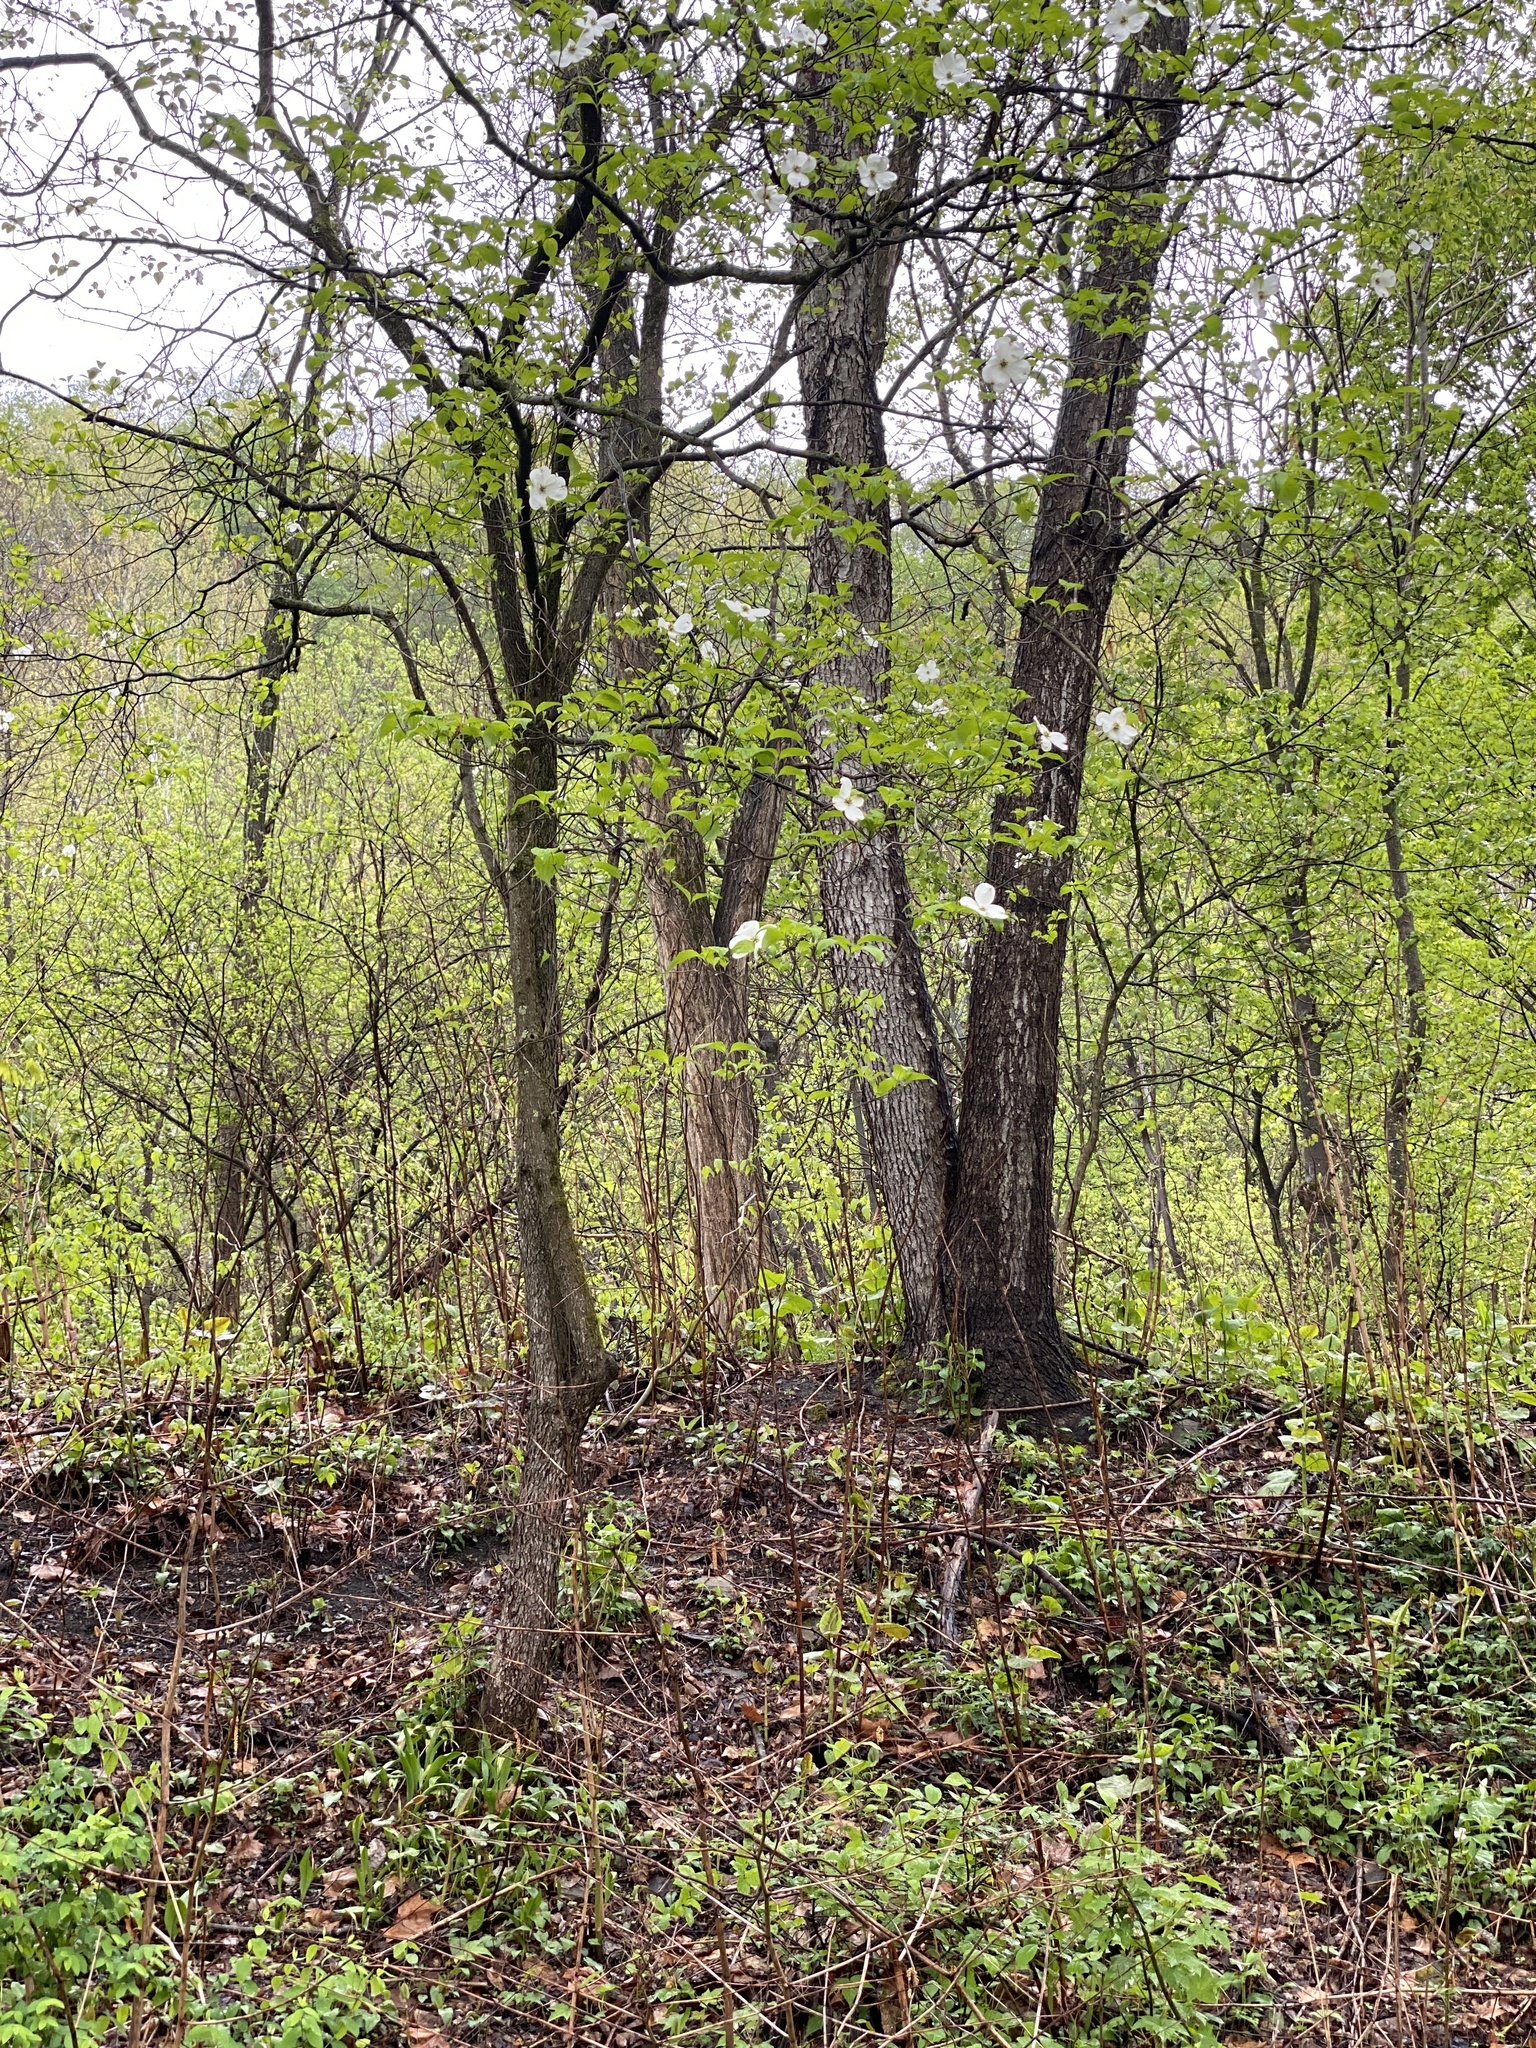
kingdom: Plantae
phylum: Tracheophyta
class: Magnoliopsida
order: Cornales
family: Cornaceae
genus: Cornus
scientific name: Cornus florida
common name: Flowering dogwood
